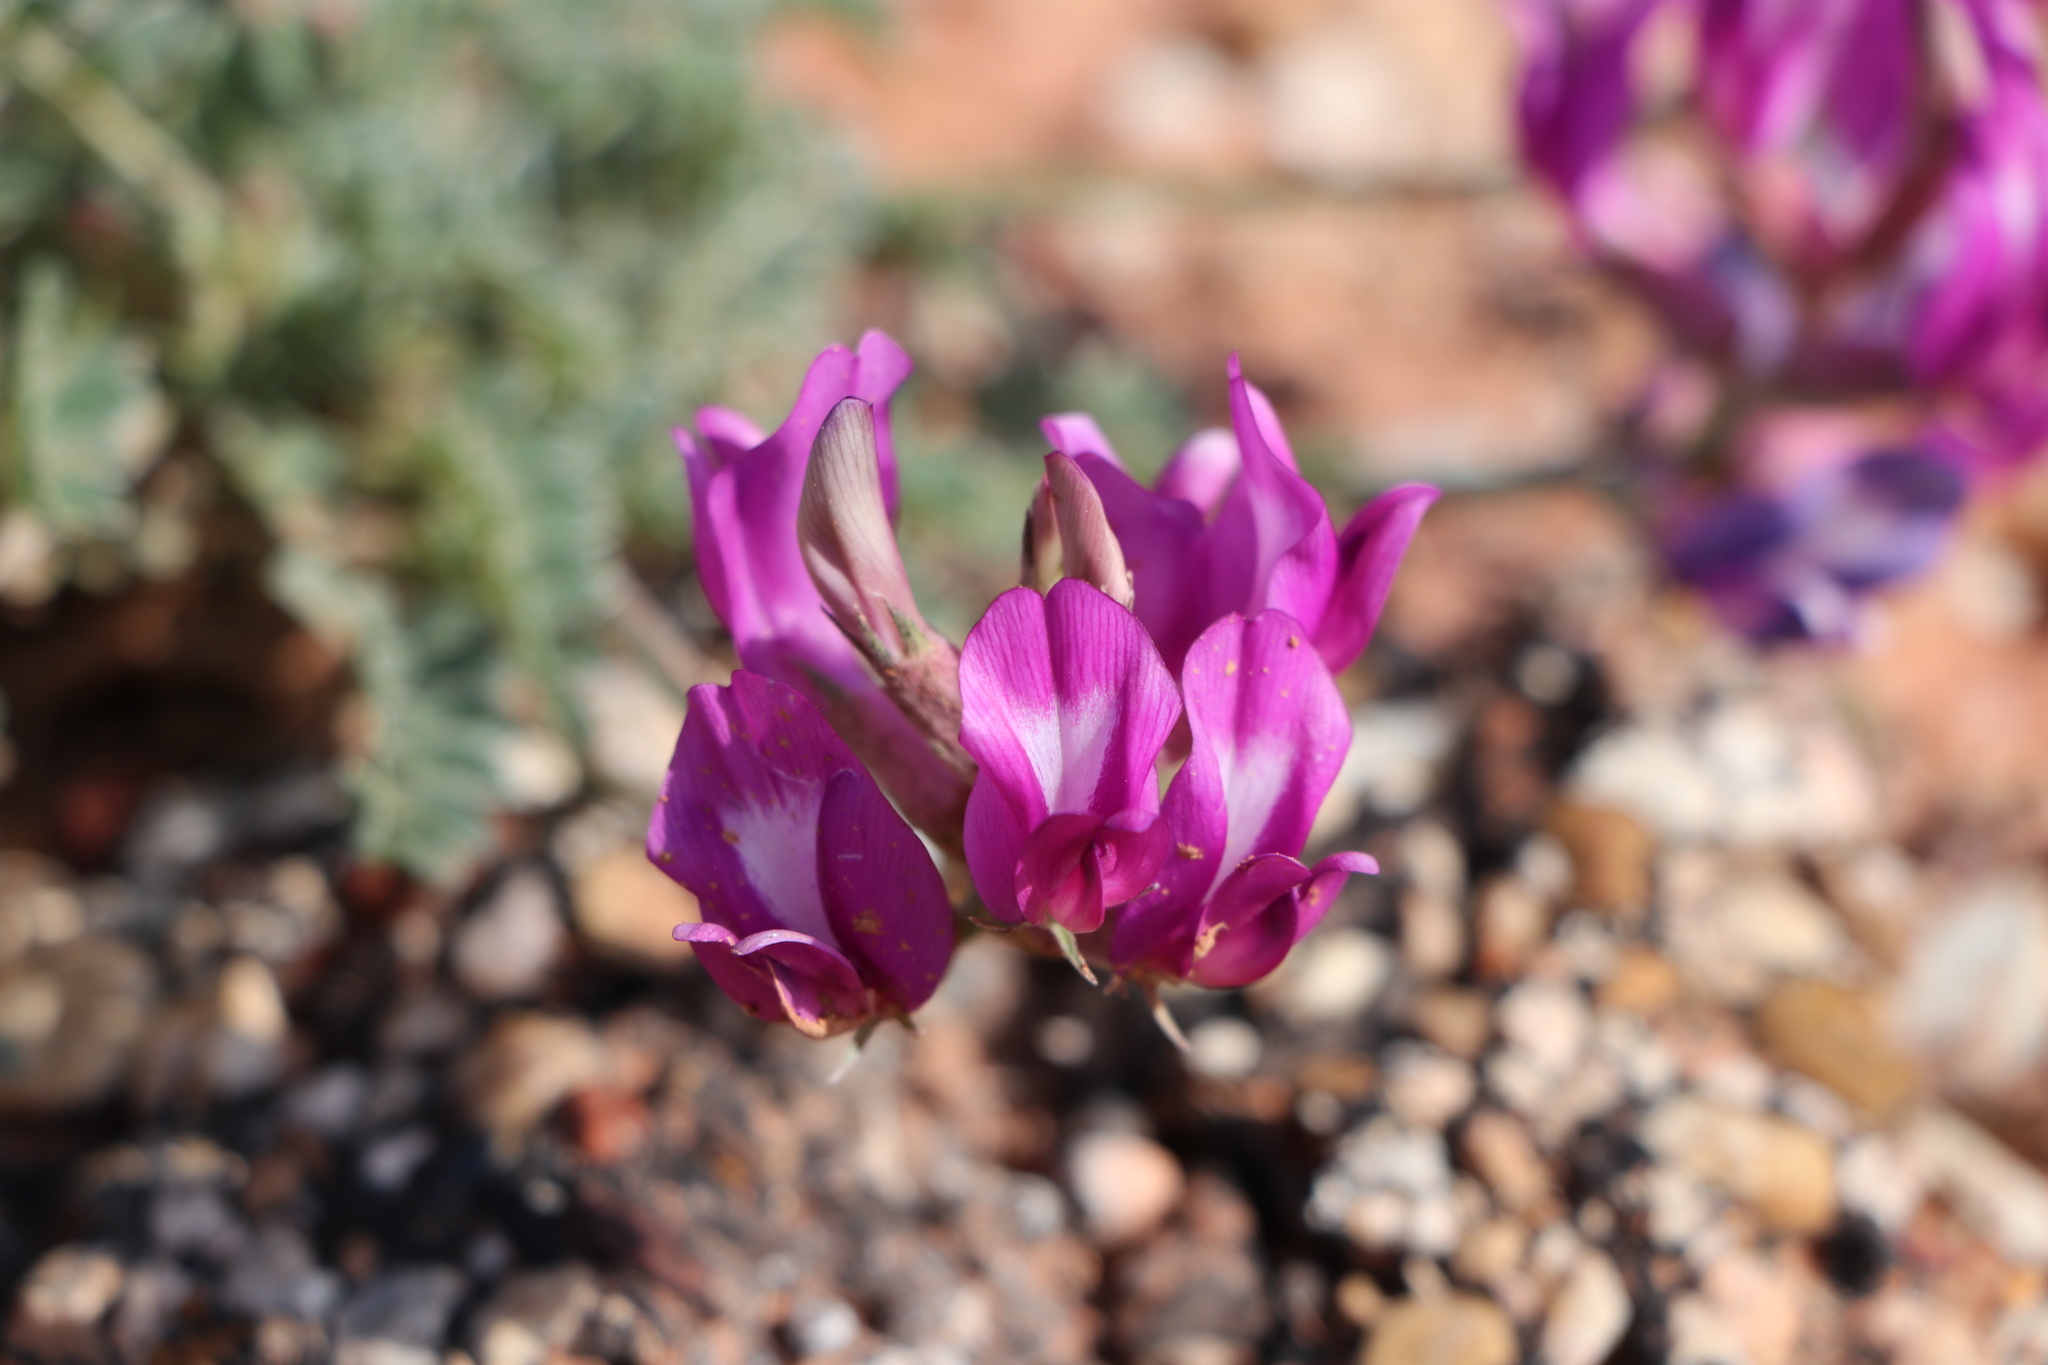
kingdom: Plantae
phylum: Tracheophyta
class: Magnoliopsida
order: Fabales
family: Fabaceae
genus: Astragalus
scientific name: Astragalus missouriensis
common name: Missouri milk-vetch
